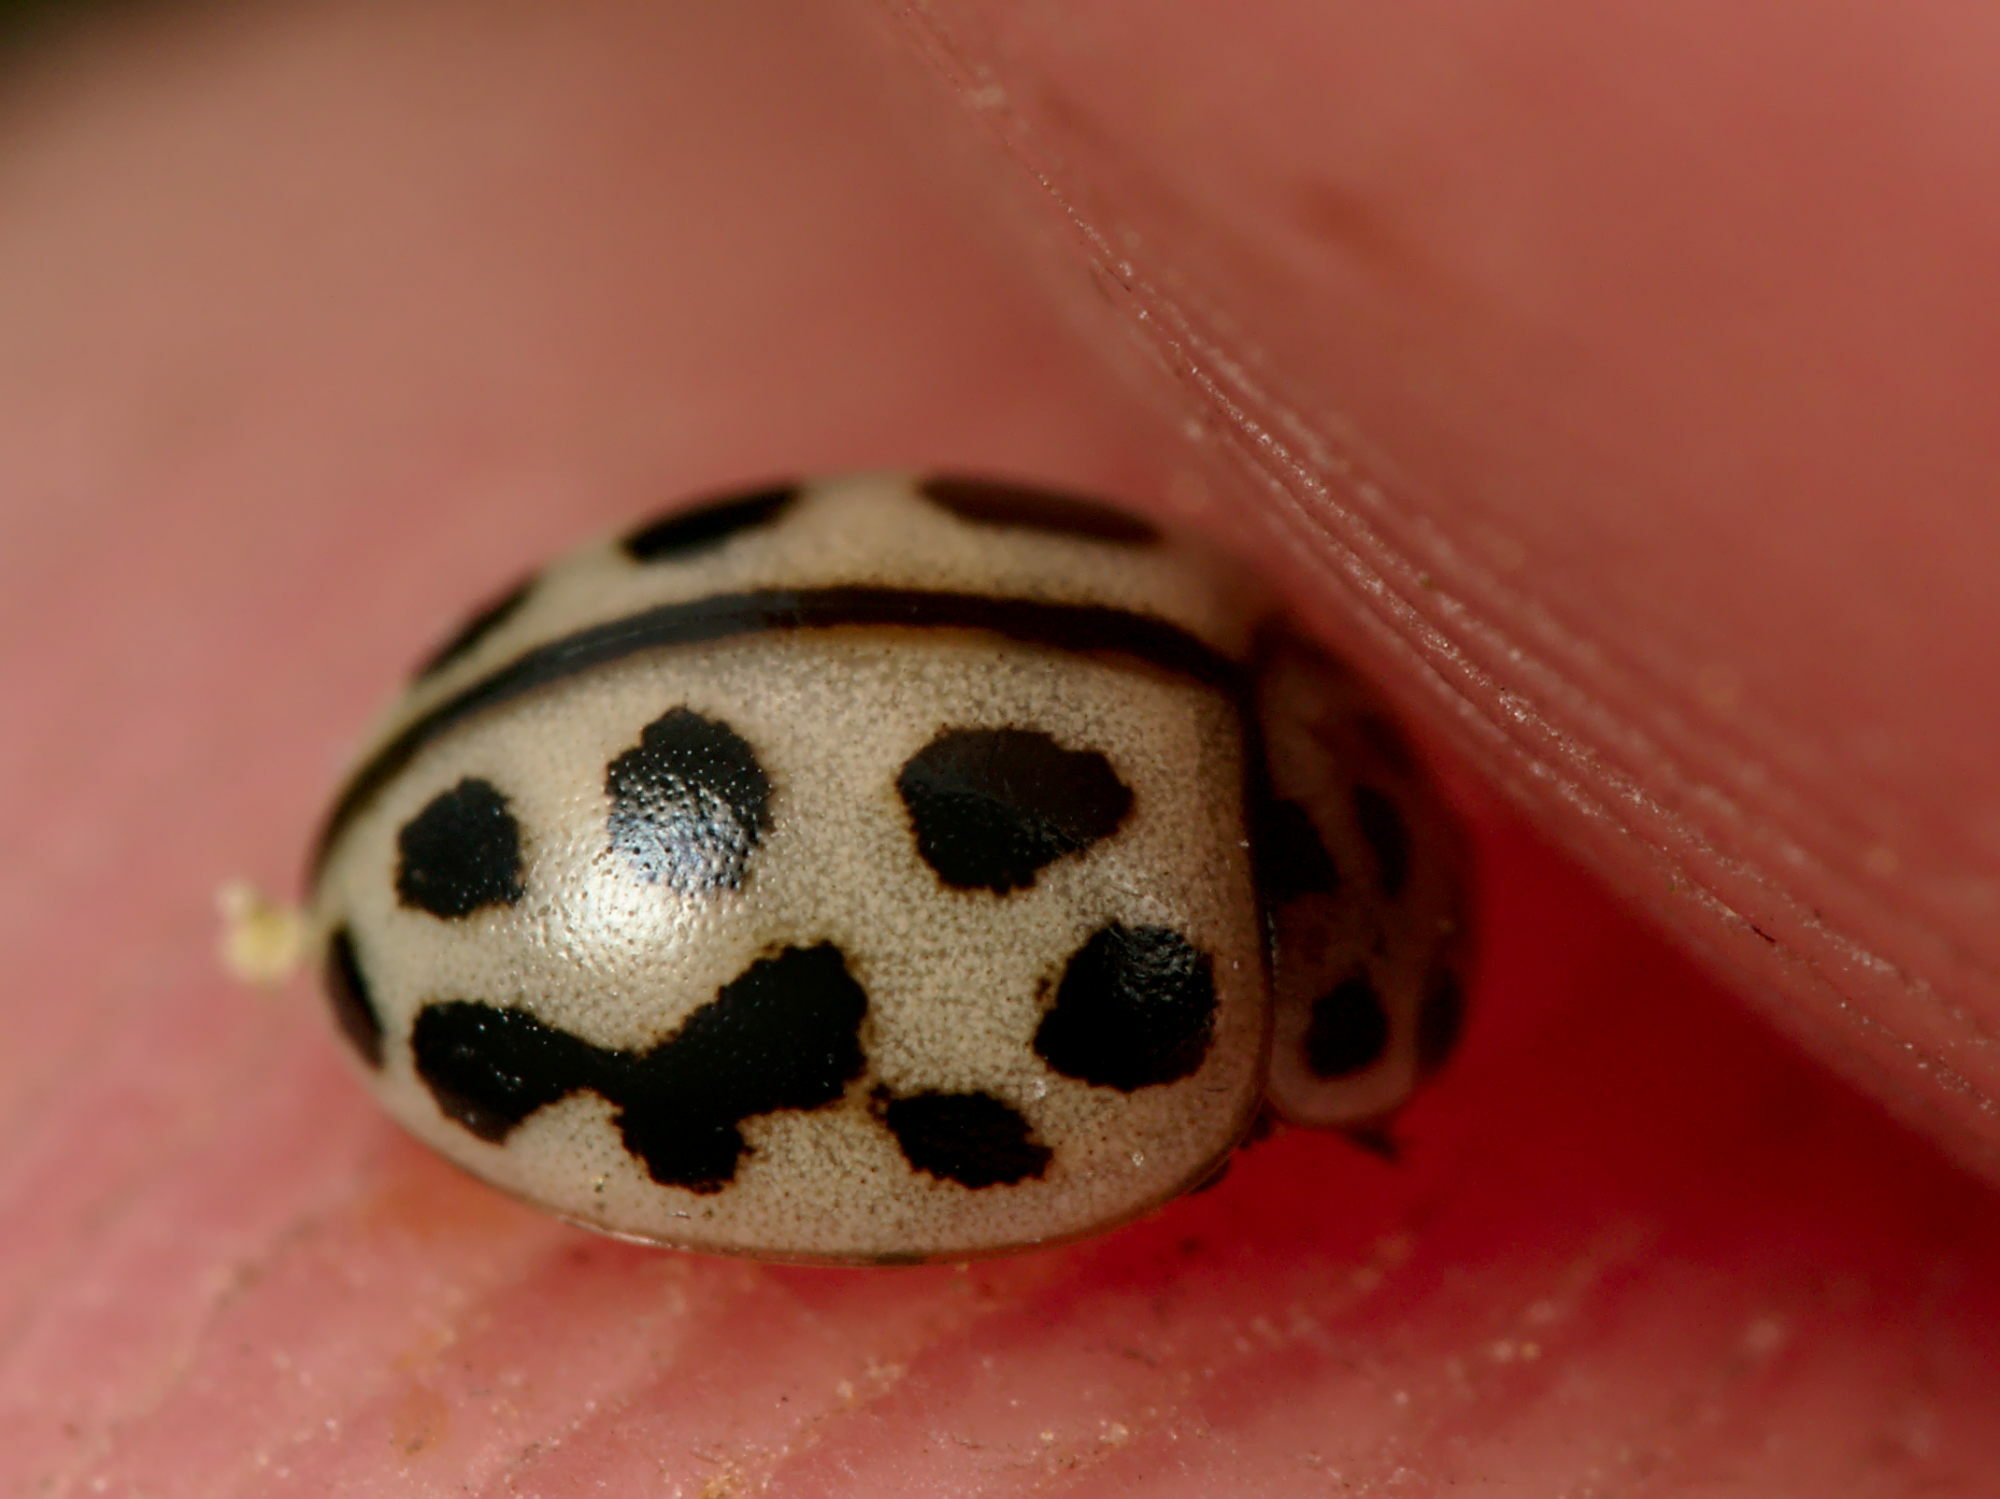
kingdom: Animalia
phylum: Arthropoda
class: Insecta
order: Coleoptera
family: Coccinellidae
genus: Tytthaspis
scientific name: Tytthaspis sedecimpunctata
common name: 16-spot ladybird
